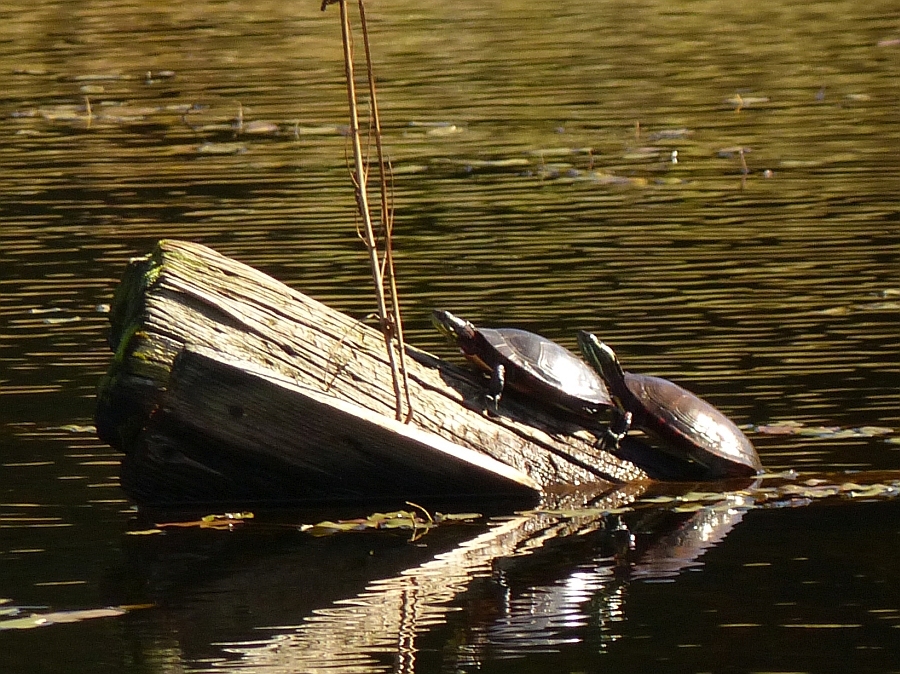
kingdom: Animalia
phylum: Chordata
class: Testudines
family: Emydidae
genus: Chrysemys
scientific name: Chrysemys picta
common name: Painted turtle
